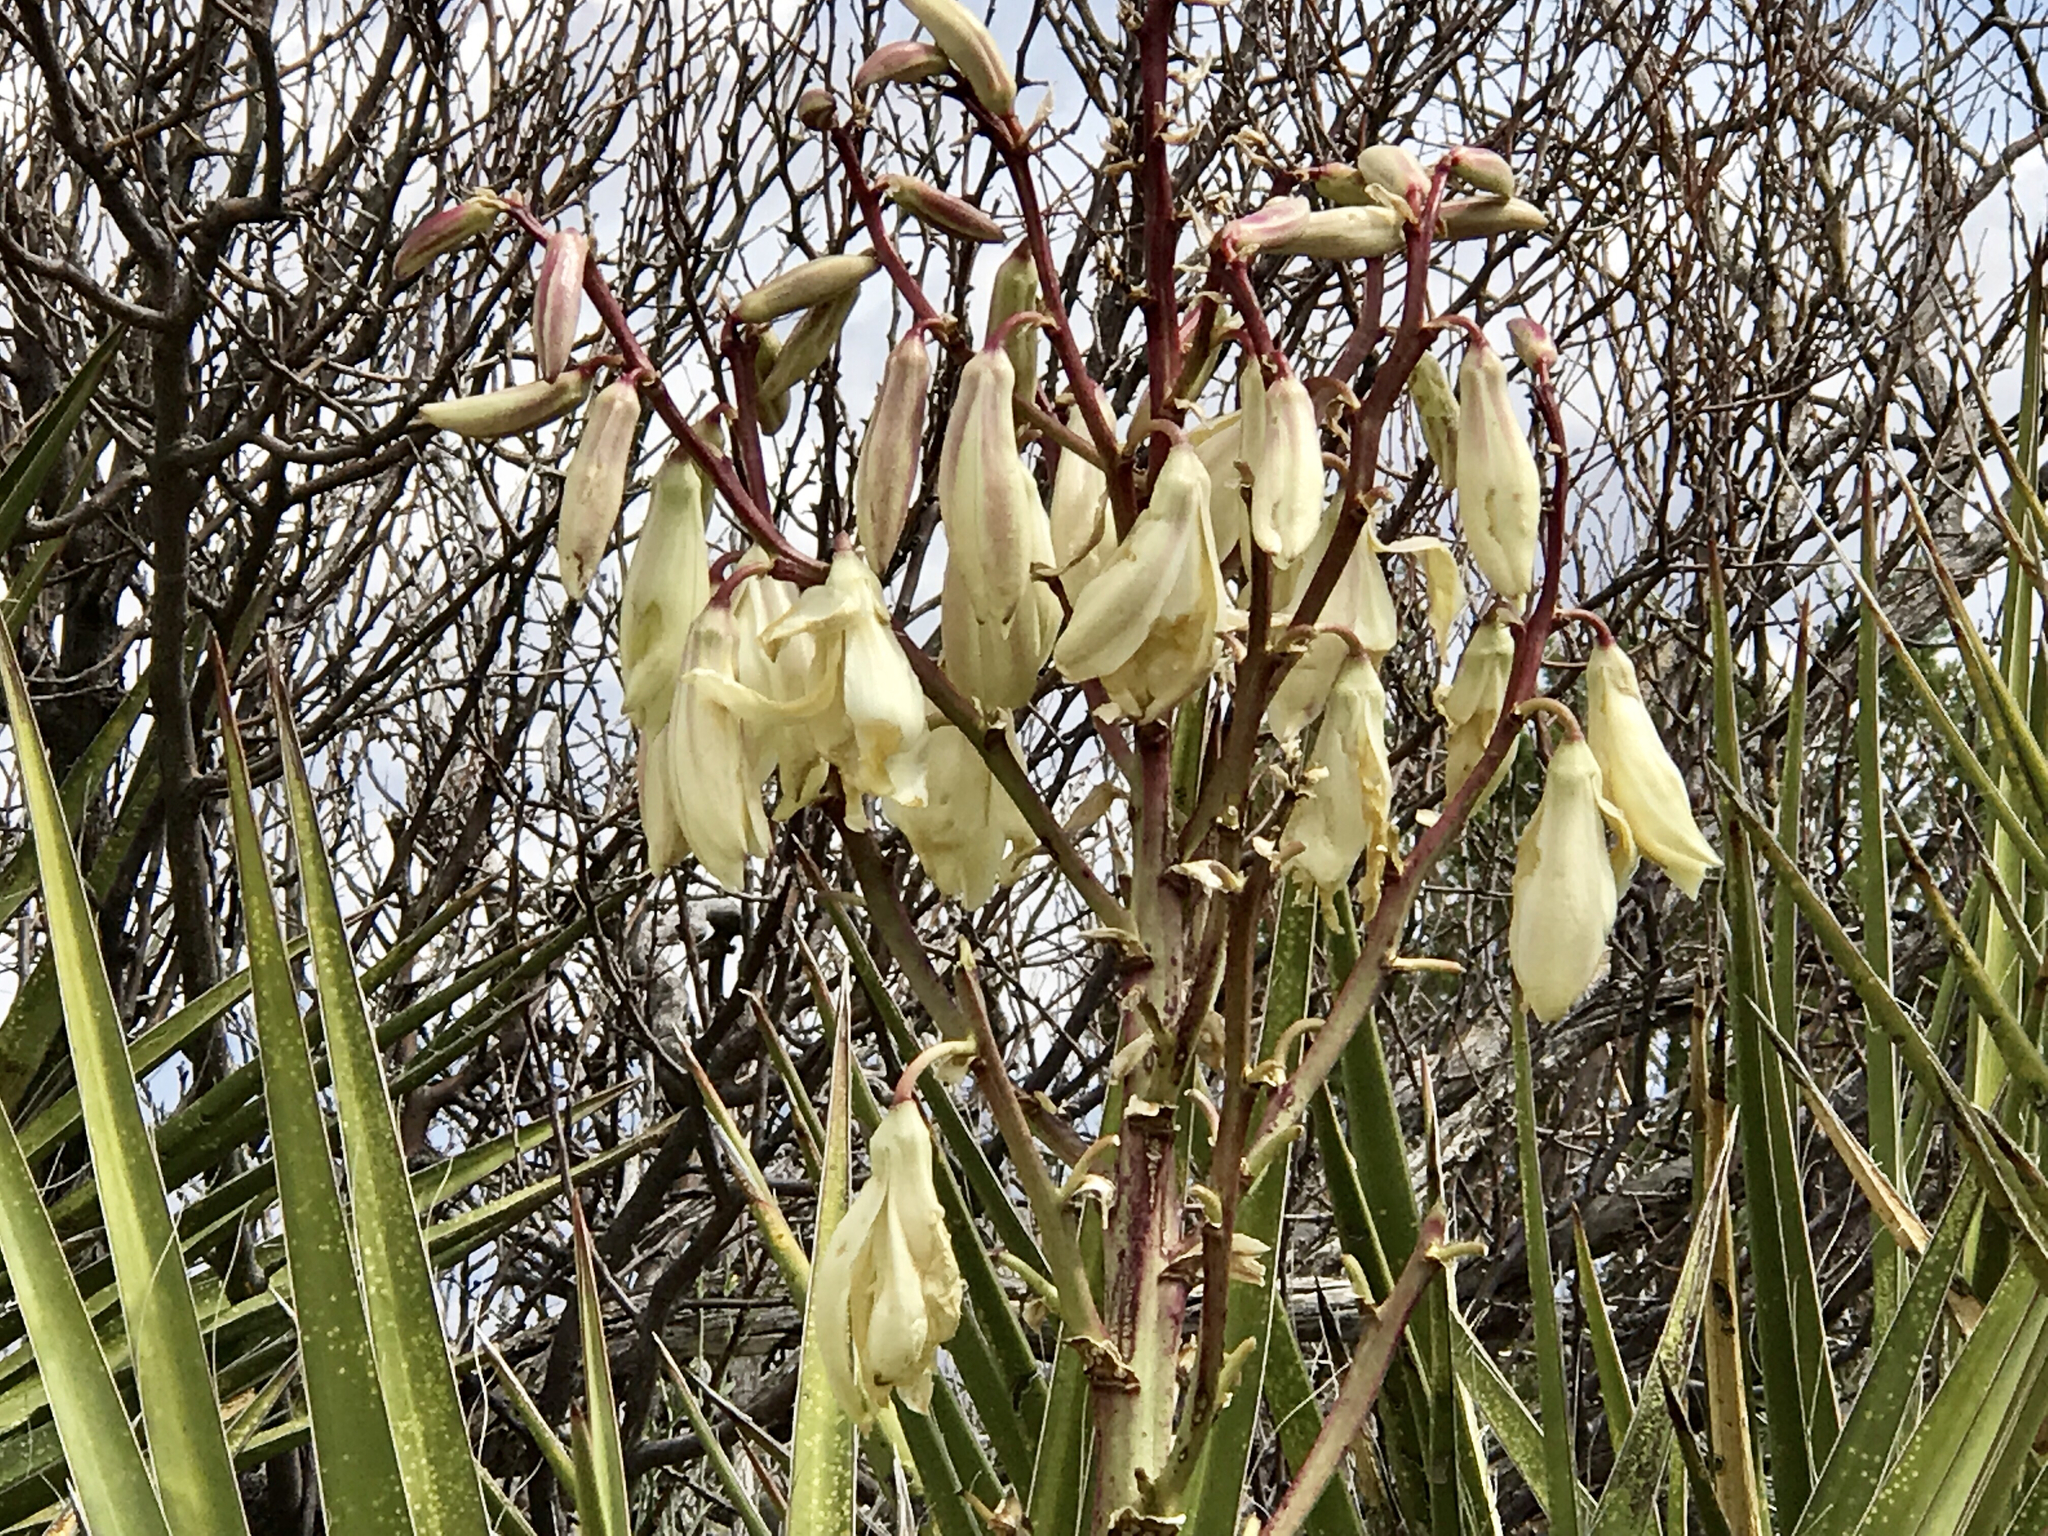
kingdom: Plantae
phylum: Tracheophyta
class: Liliopsida
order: Asparagales
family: Asparagaceae
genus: Yucca
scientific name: Yucca baccata
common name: Banana yucca
